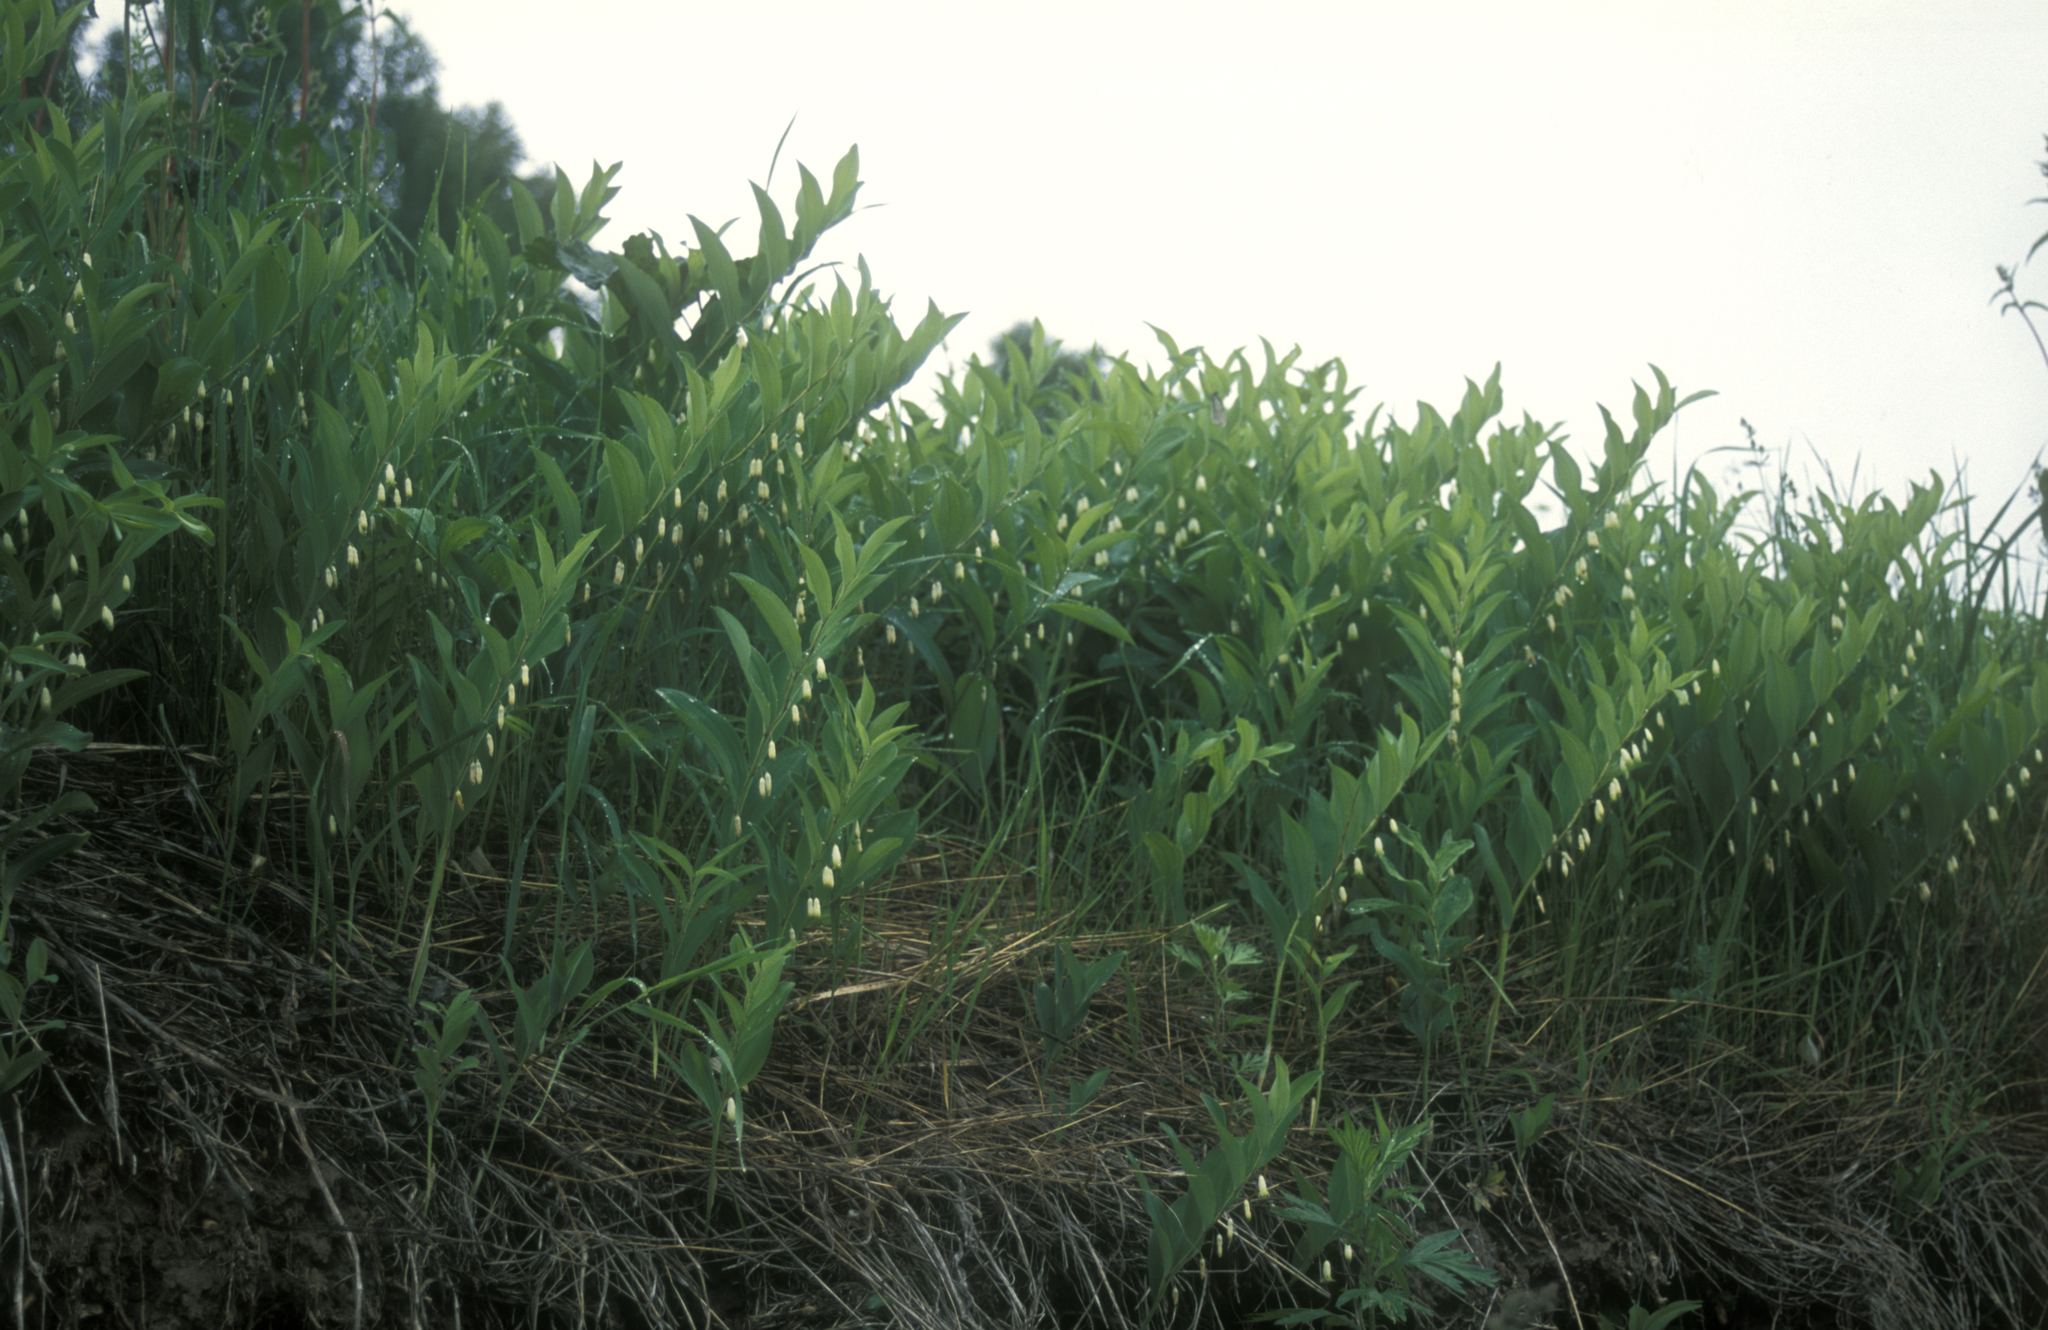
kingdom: Plantae
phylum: Tracheophyta
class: Liliopsida
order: Asparagales
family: Asparagaceae
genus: Polygonatum
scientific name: Polygonatum odoratum
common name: Angular solomon's-seal
